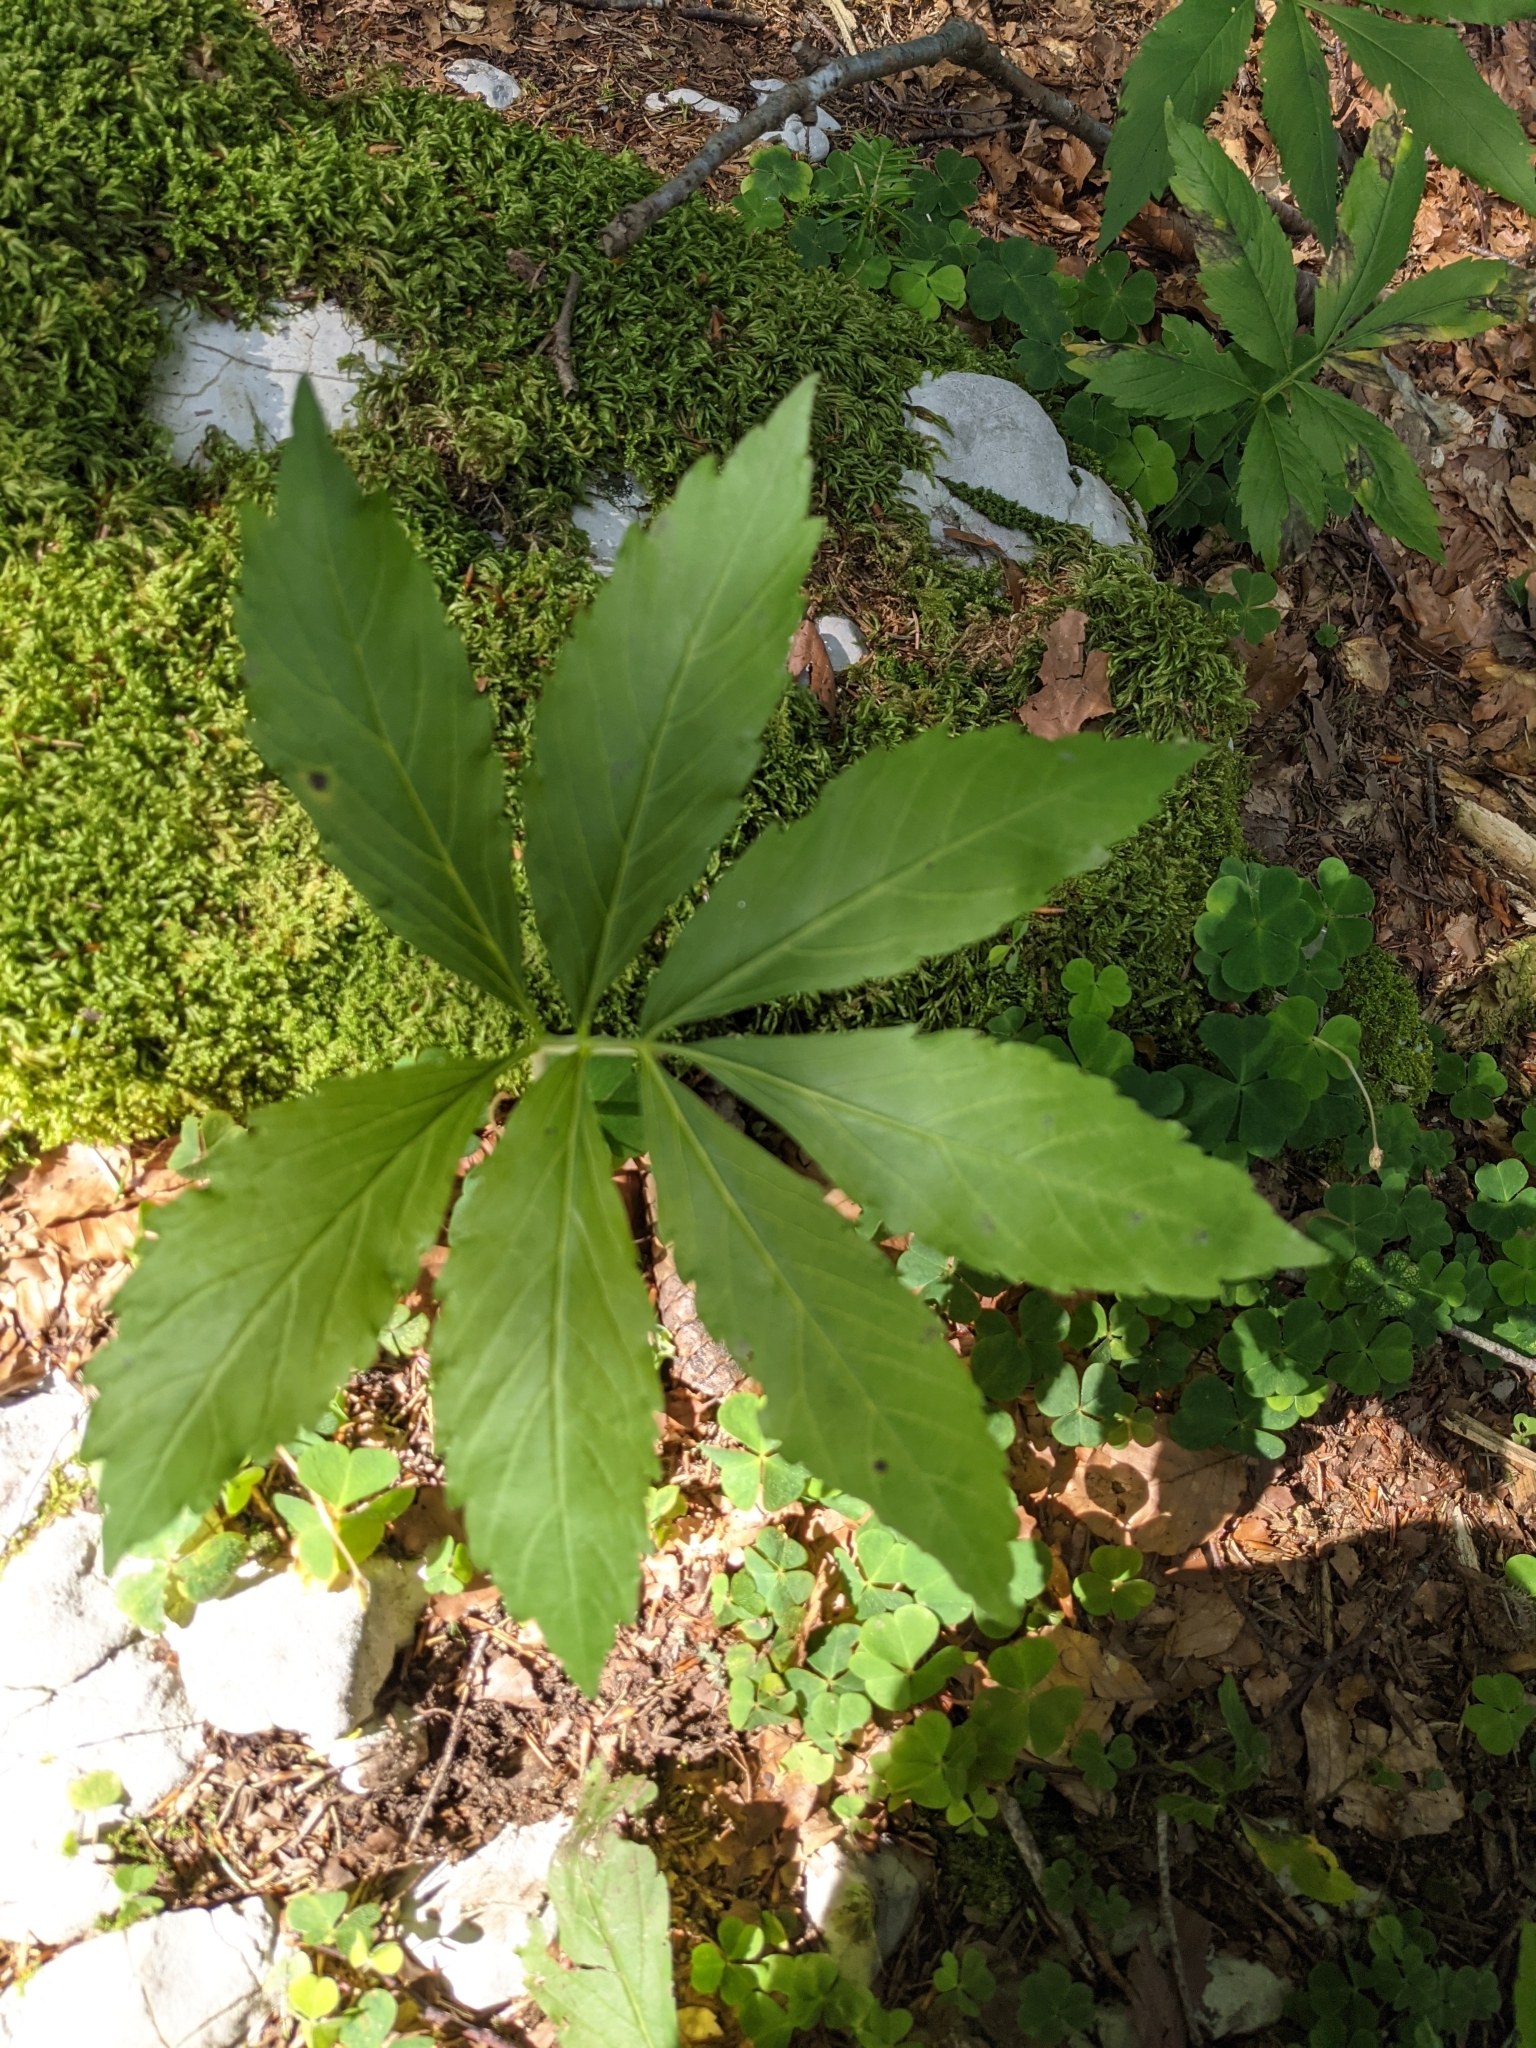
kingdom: Plantae
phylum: Tracheophyta
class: Magnoliopsida
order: Brassicales
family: Brassicaceae
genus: Cardamine
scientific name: Cardamine heptaphylla
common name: Pinnate coralroot
